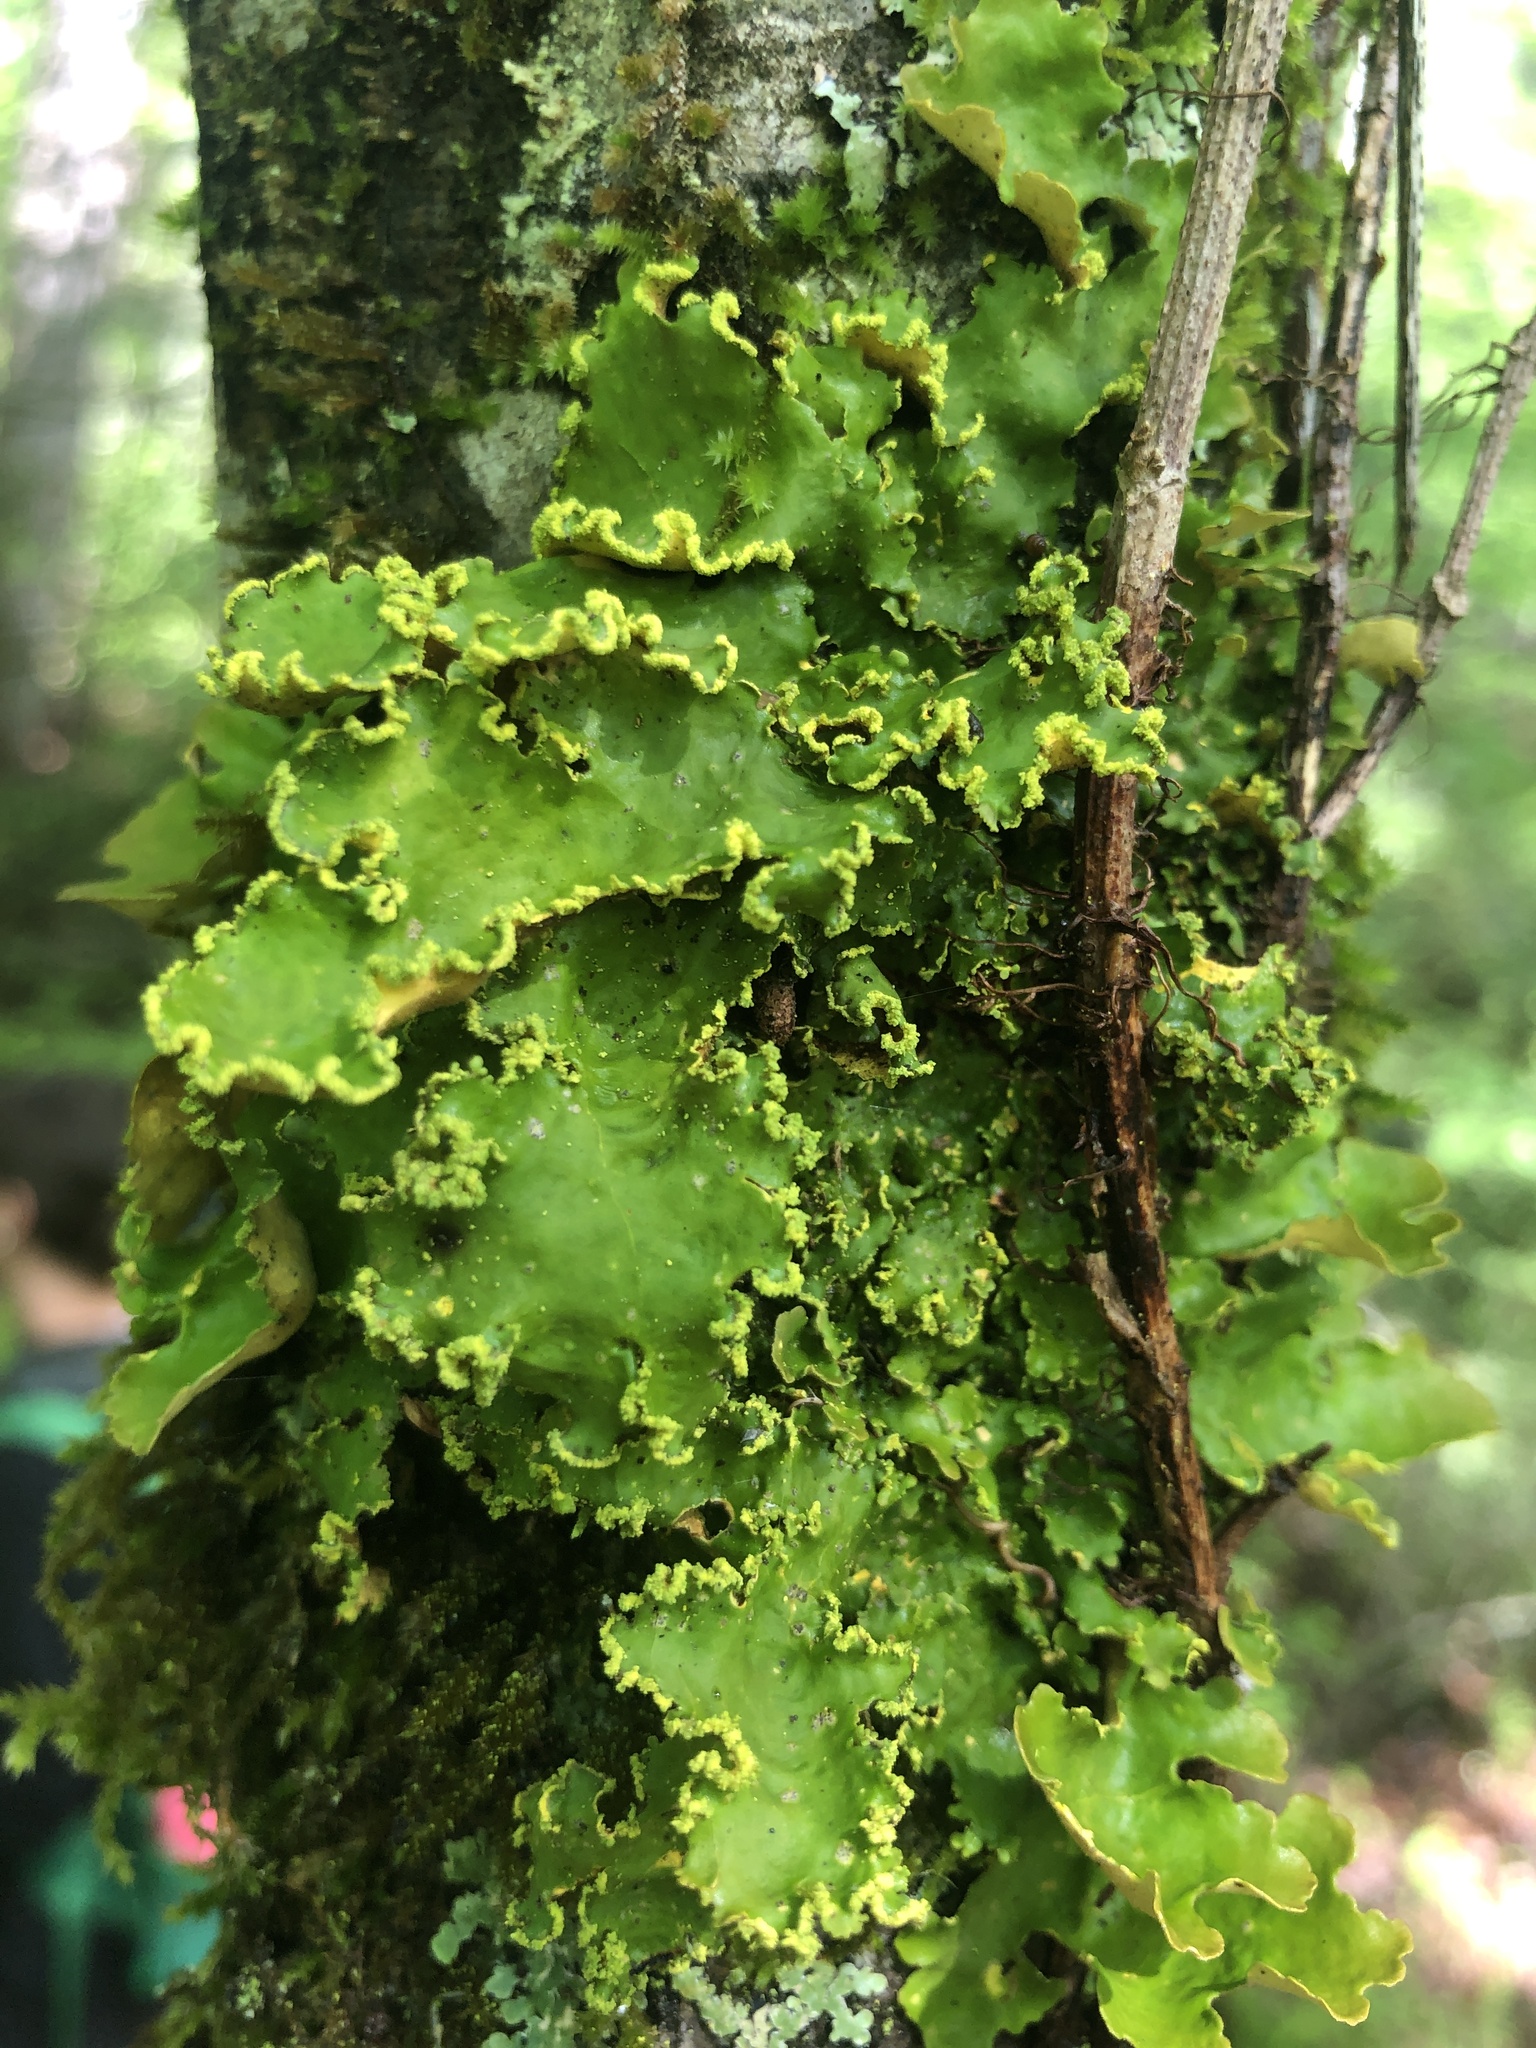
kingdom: Fungi
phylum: Ascomycota
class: Lecanoromycetes
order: Peltigerales
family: Lobariaceae
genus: Pseudocyphellaria
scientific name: Pseudocyphellaria aurata
